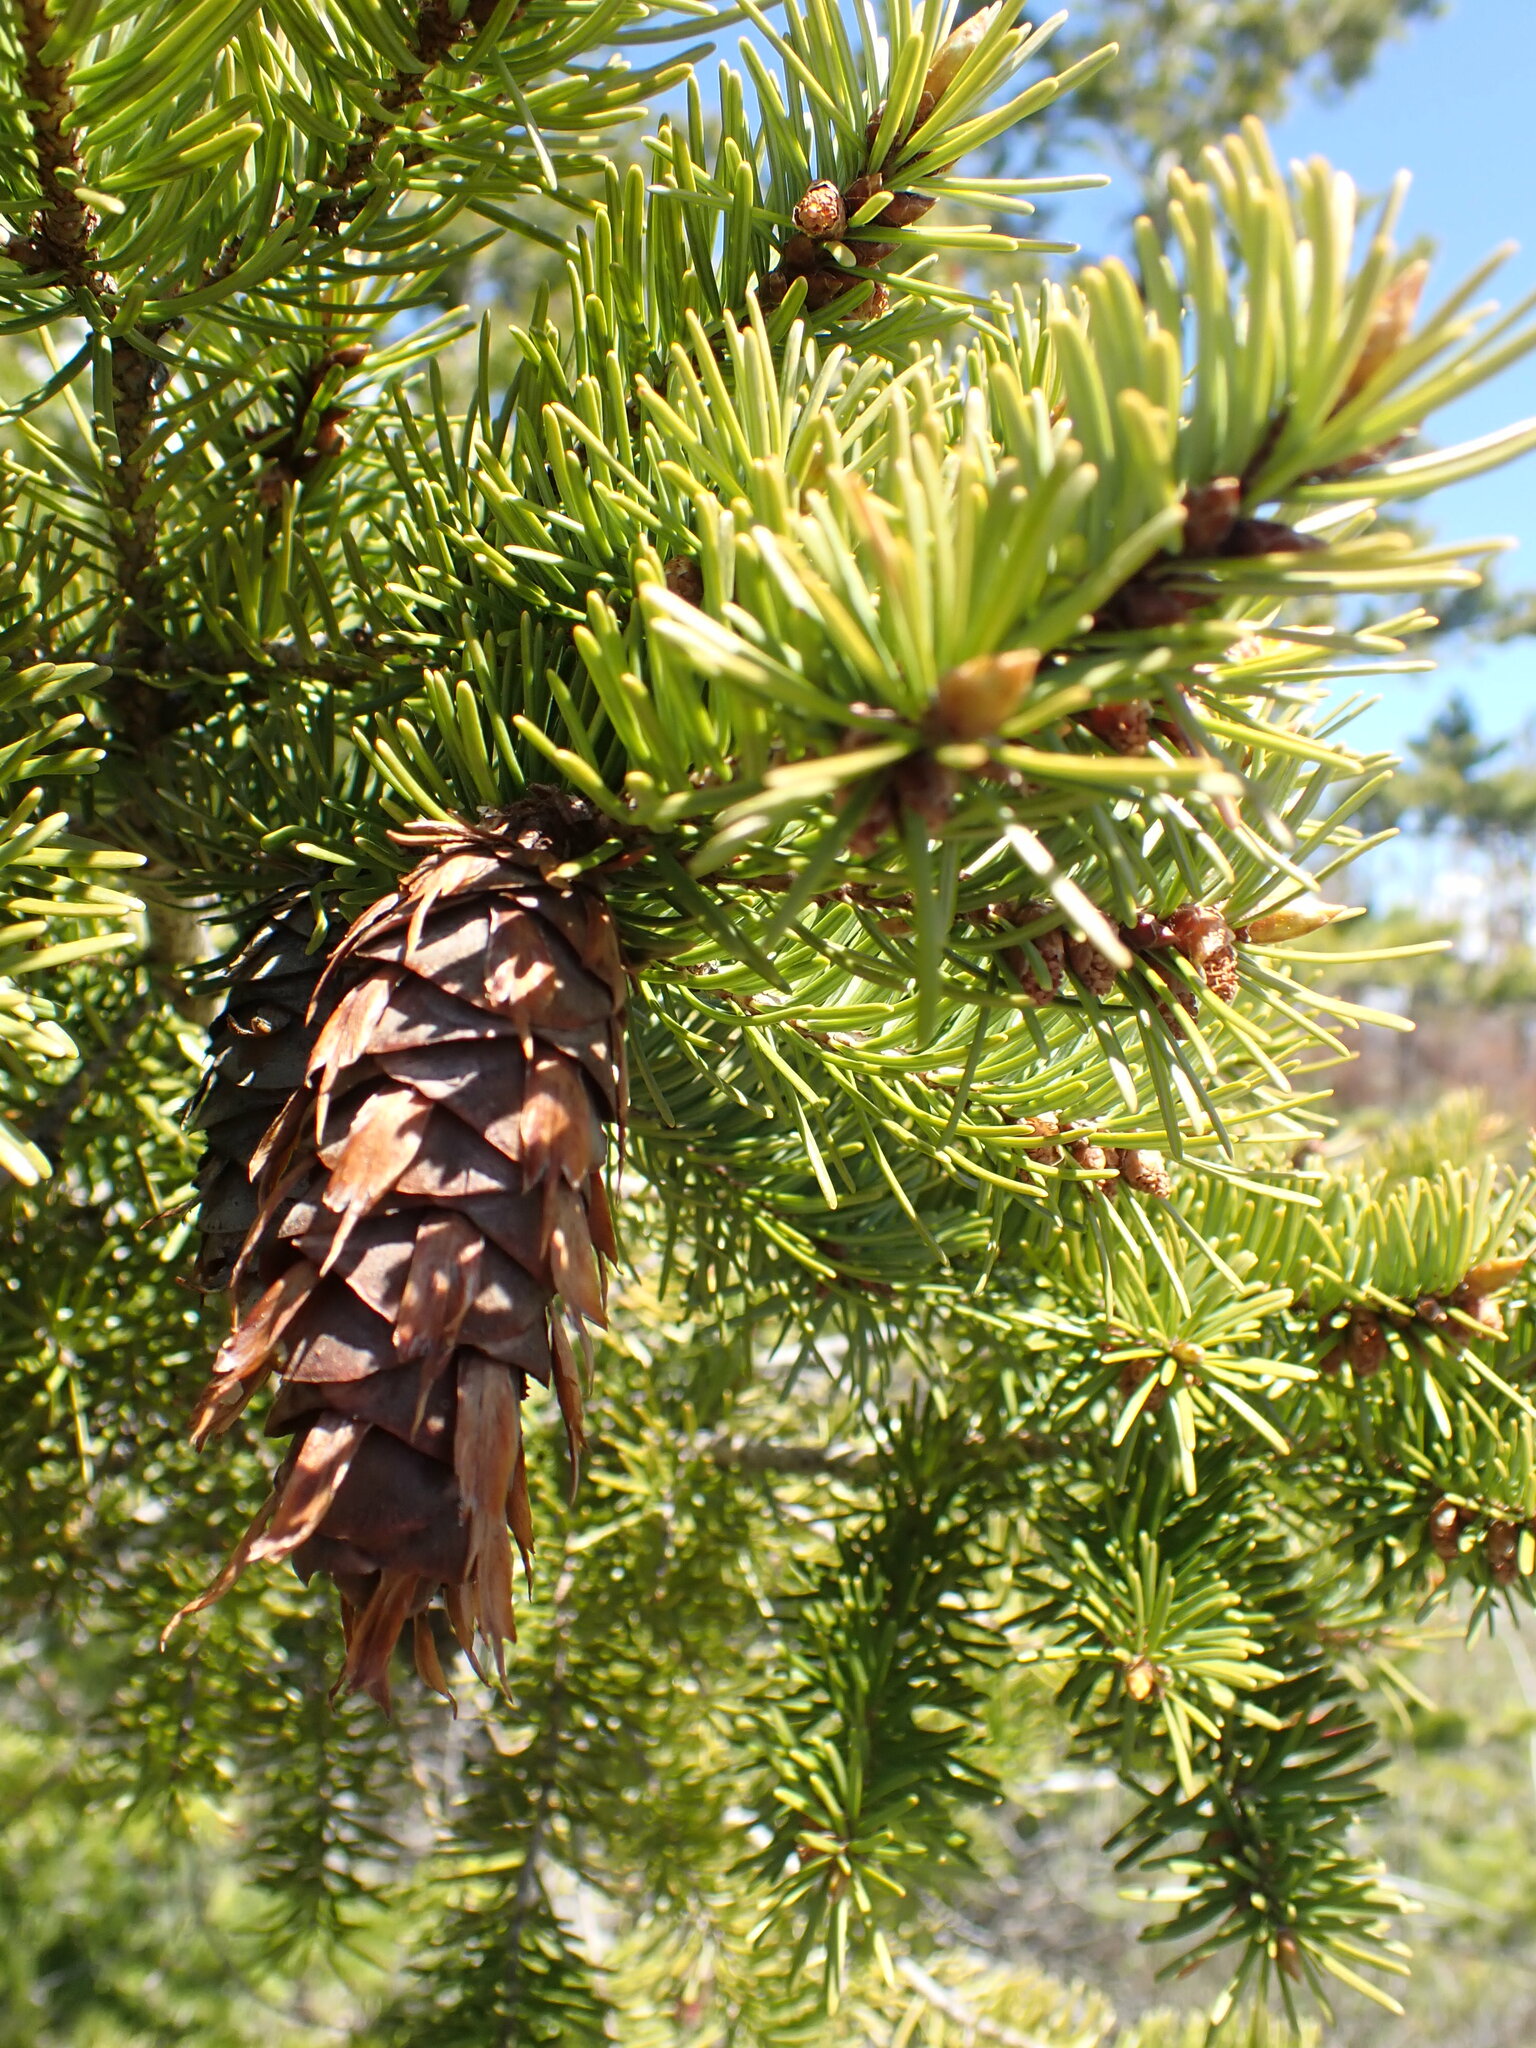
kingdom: Plantae
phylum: Tracheophyta
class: Pinopsida
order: Pinales
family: Pinaceae
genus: Pseudotsuga
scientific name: Pseudotsuga menziesii
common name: Douglas fir
